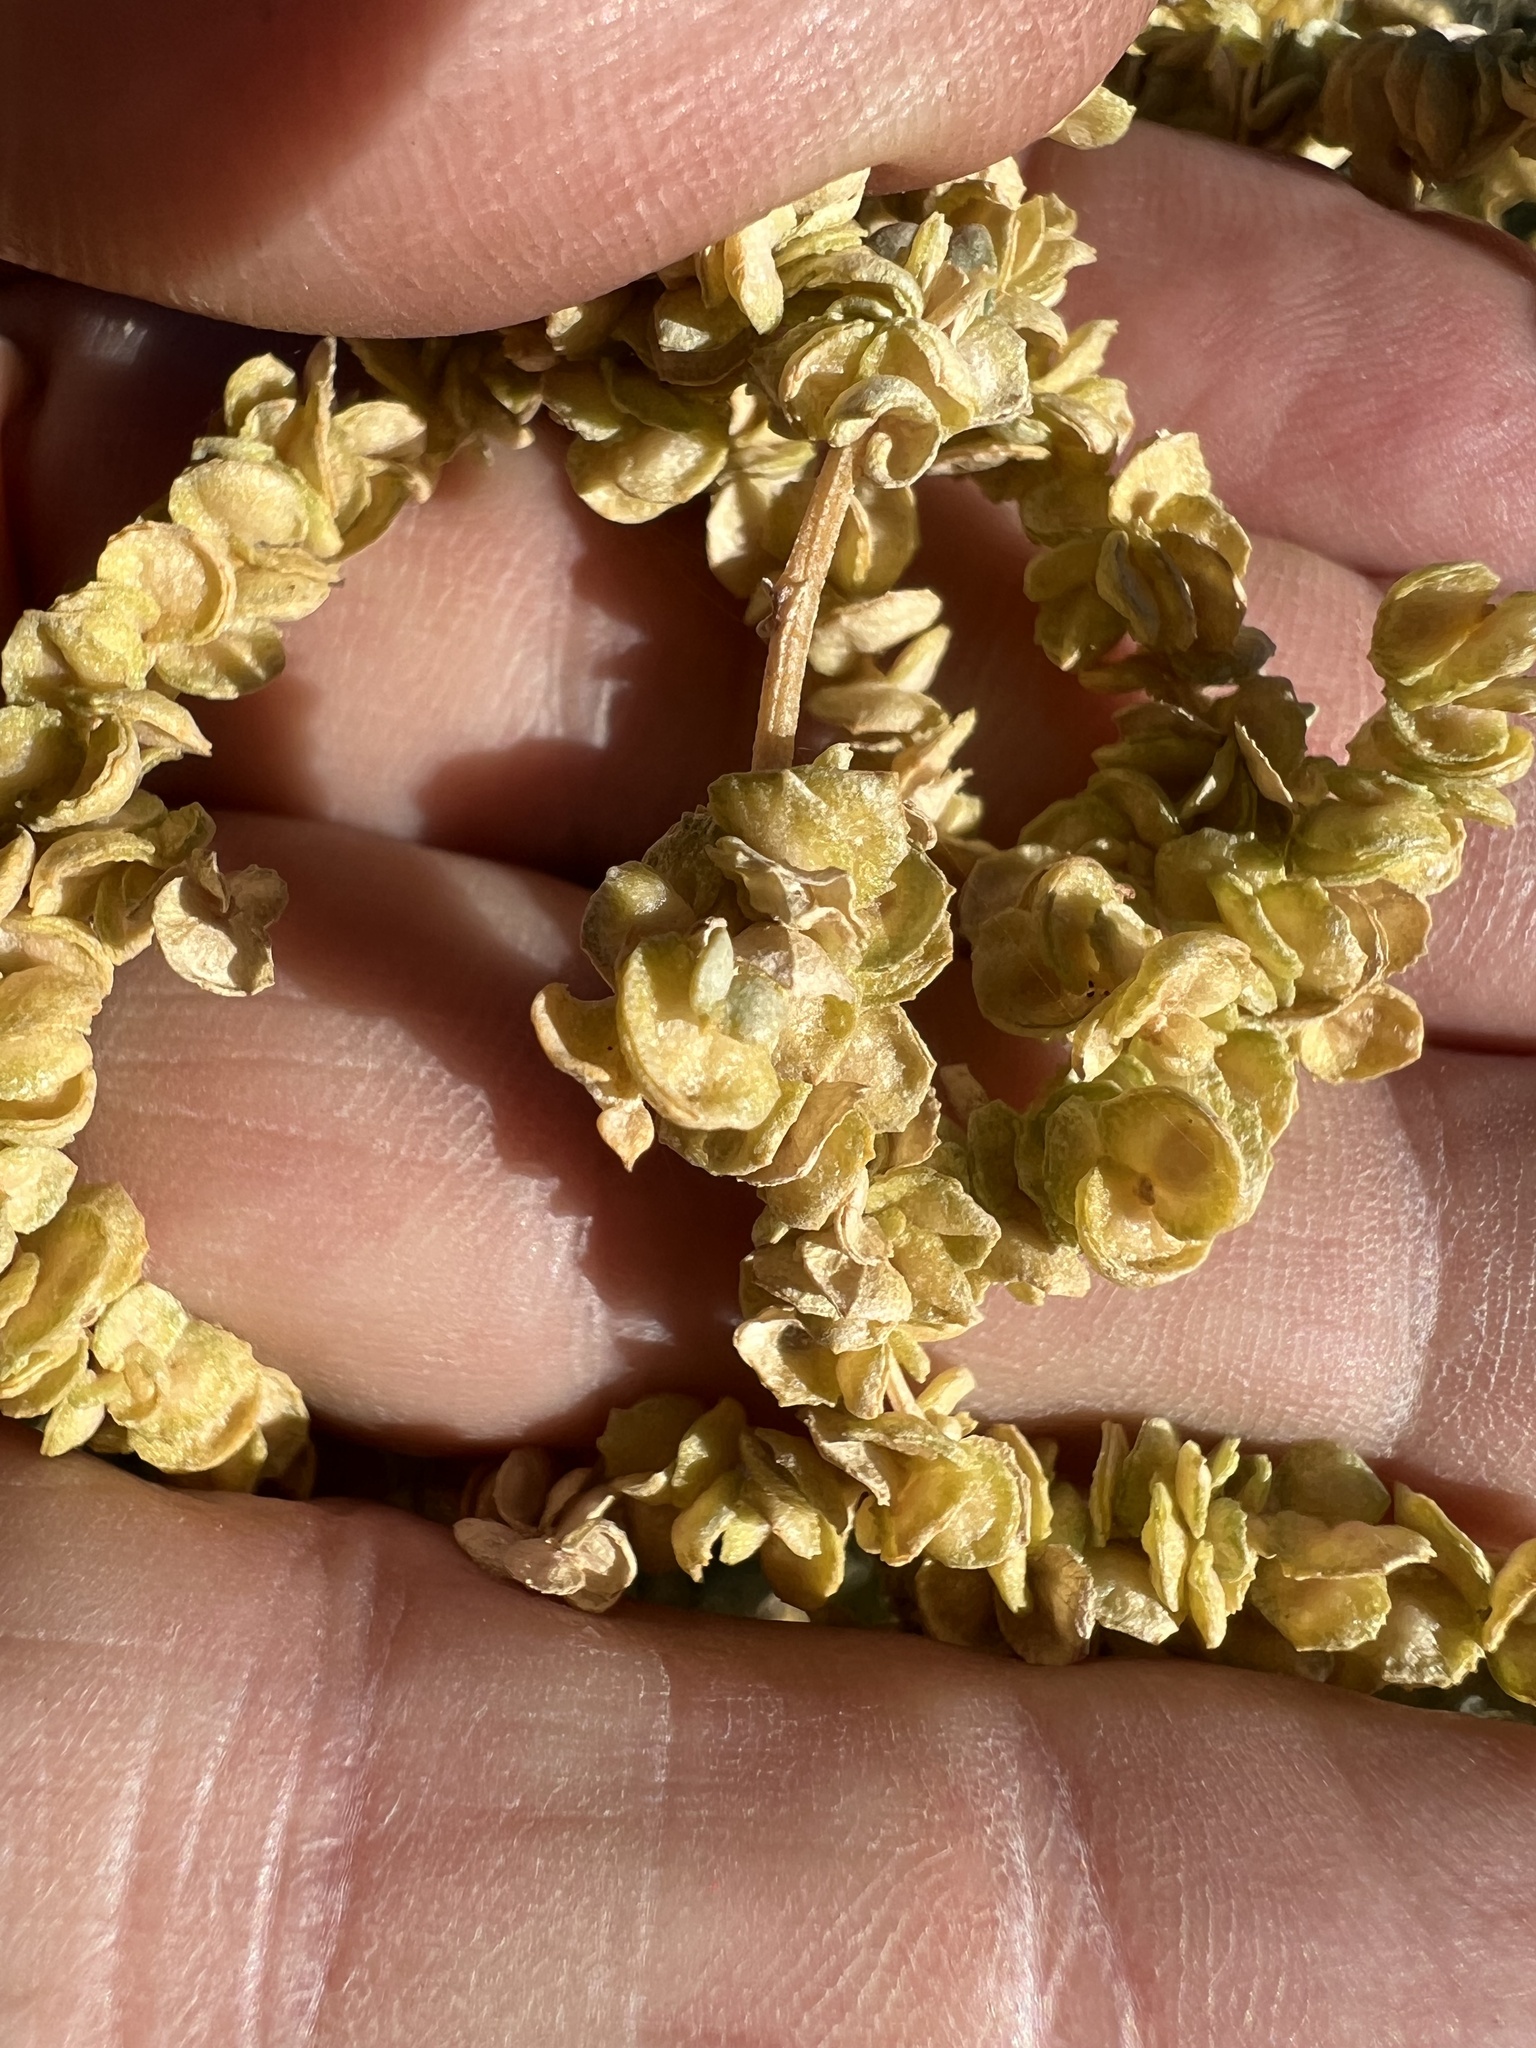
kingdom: Plantae
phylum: Tracheophyta
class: Magnoliopsida
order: Caryophyllales
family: Amaranthaceae
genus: Atriplex
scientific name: Atriplex torreyi
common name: Torrey's saltbush
